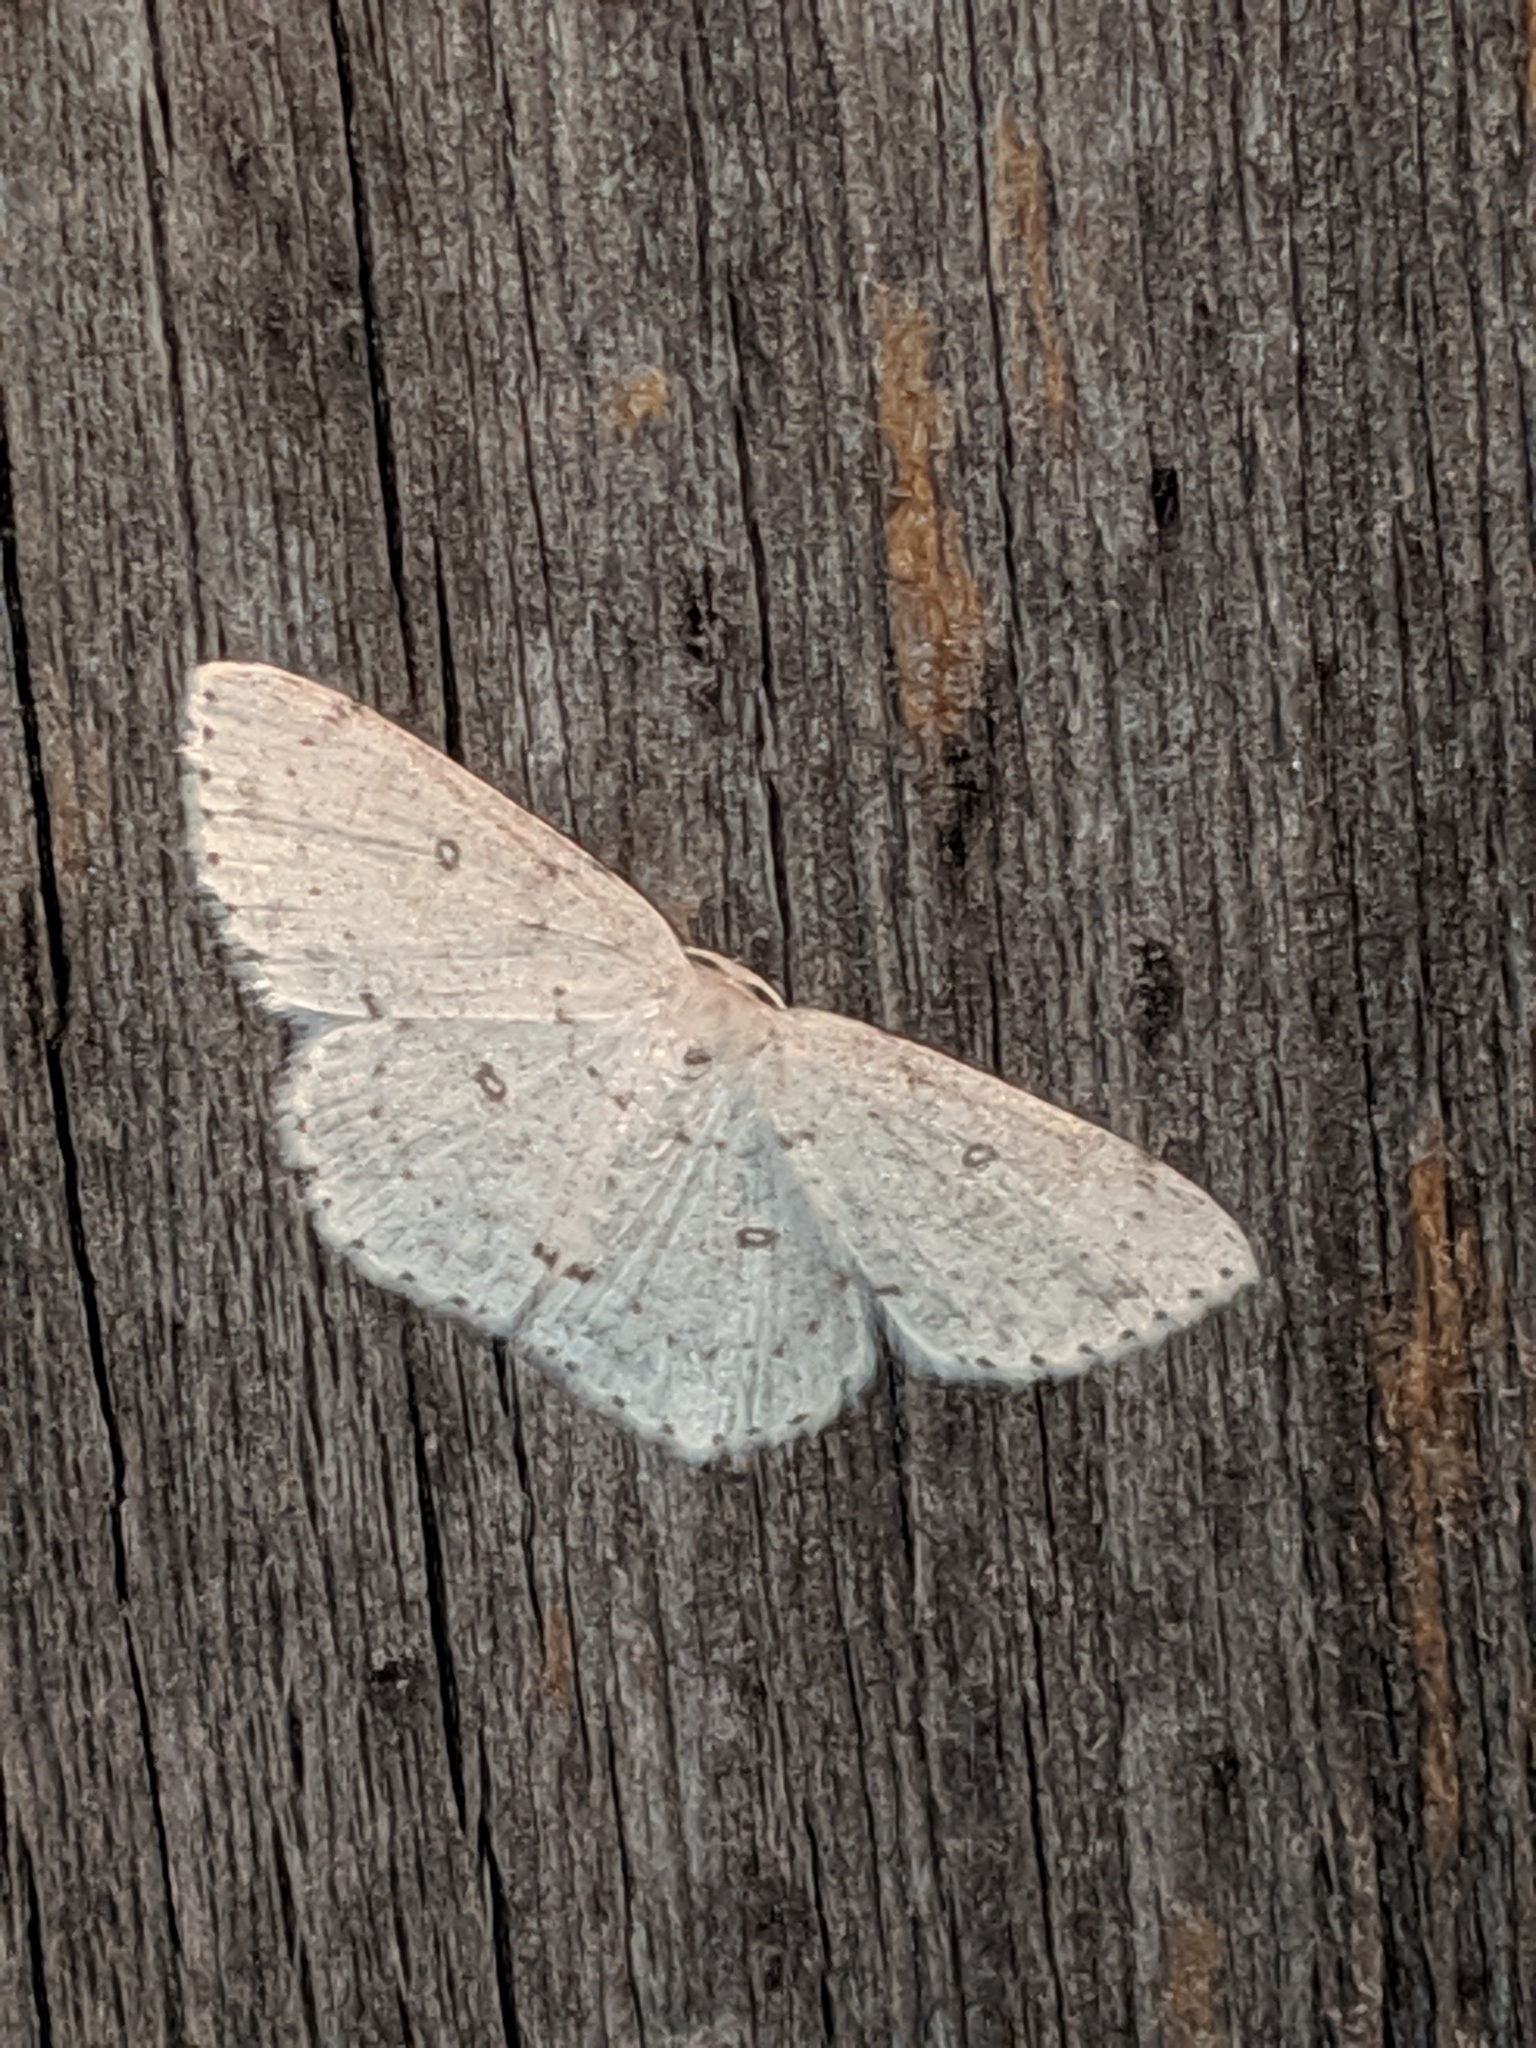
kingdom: Animalia
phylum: Arthropoda
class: Insecta
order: Lepidoptera
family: Geometridae
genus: Cyclophora
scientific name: Cyclophora pendulinaria
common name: Sweet fern geometer
